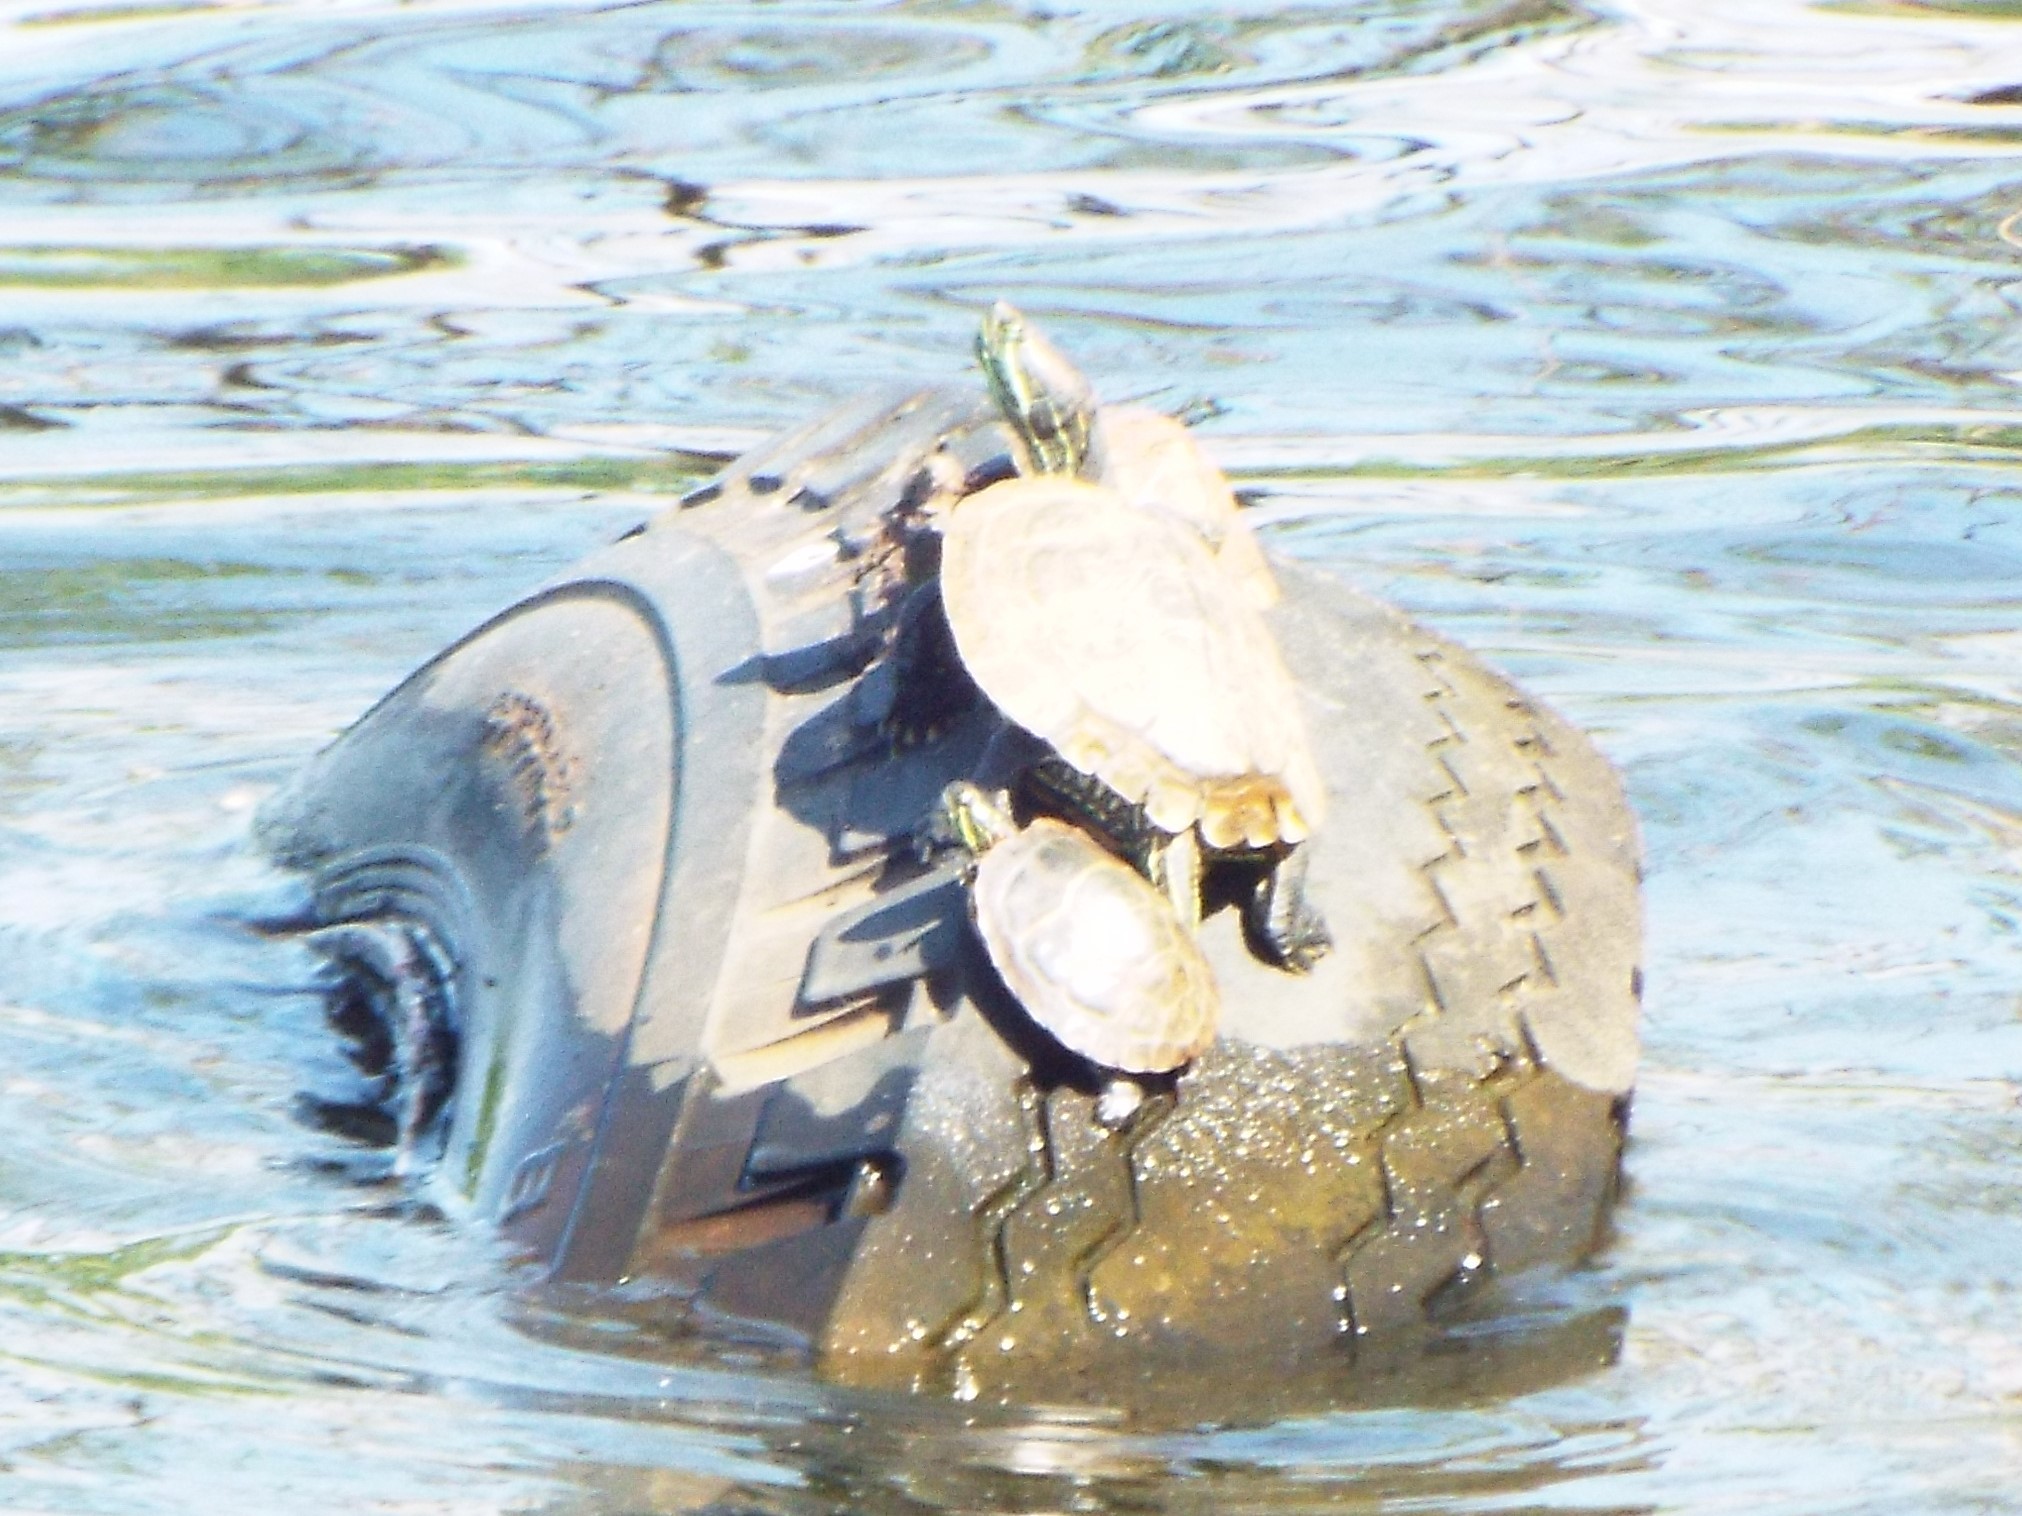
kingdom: Animalia
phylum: Chordata
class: Testudines
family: Emydidae
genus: Chrysemys
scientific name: Chrysemys picta
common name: Painted turtle
